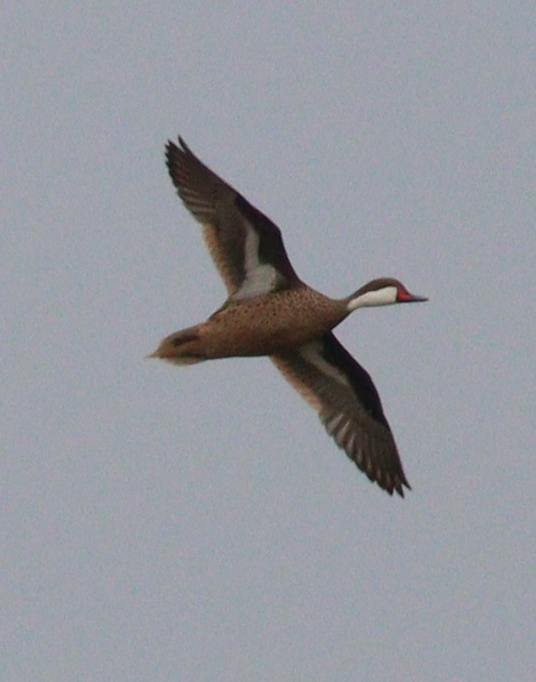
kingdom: Animalia
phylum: Chordata
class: Aves
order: Anseriformes
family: Anatidae
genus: Anas
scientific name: Anas bahamensis
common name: White-cheeked pintail
